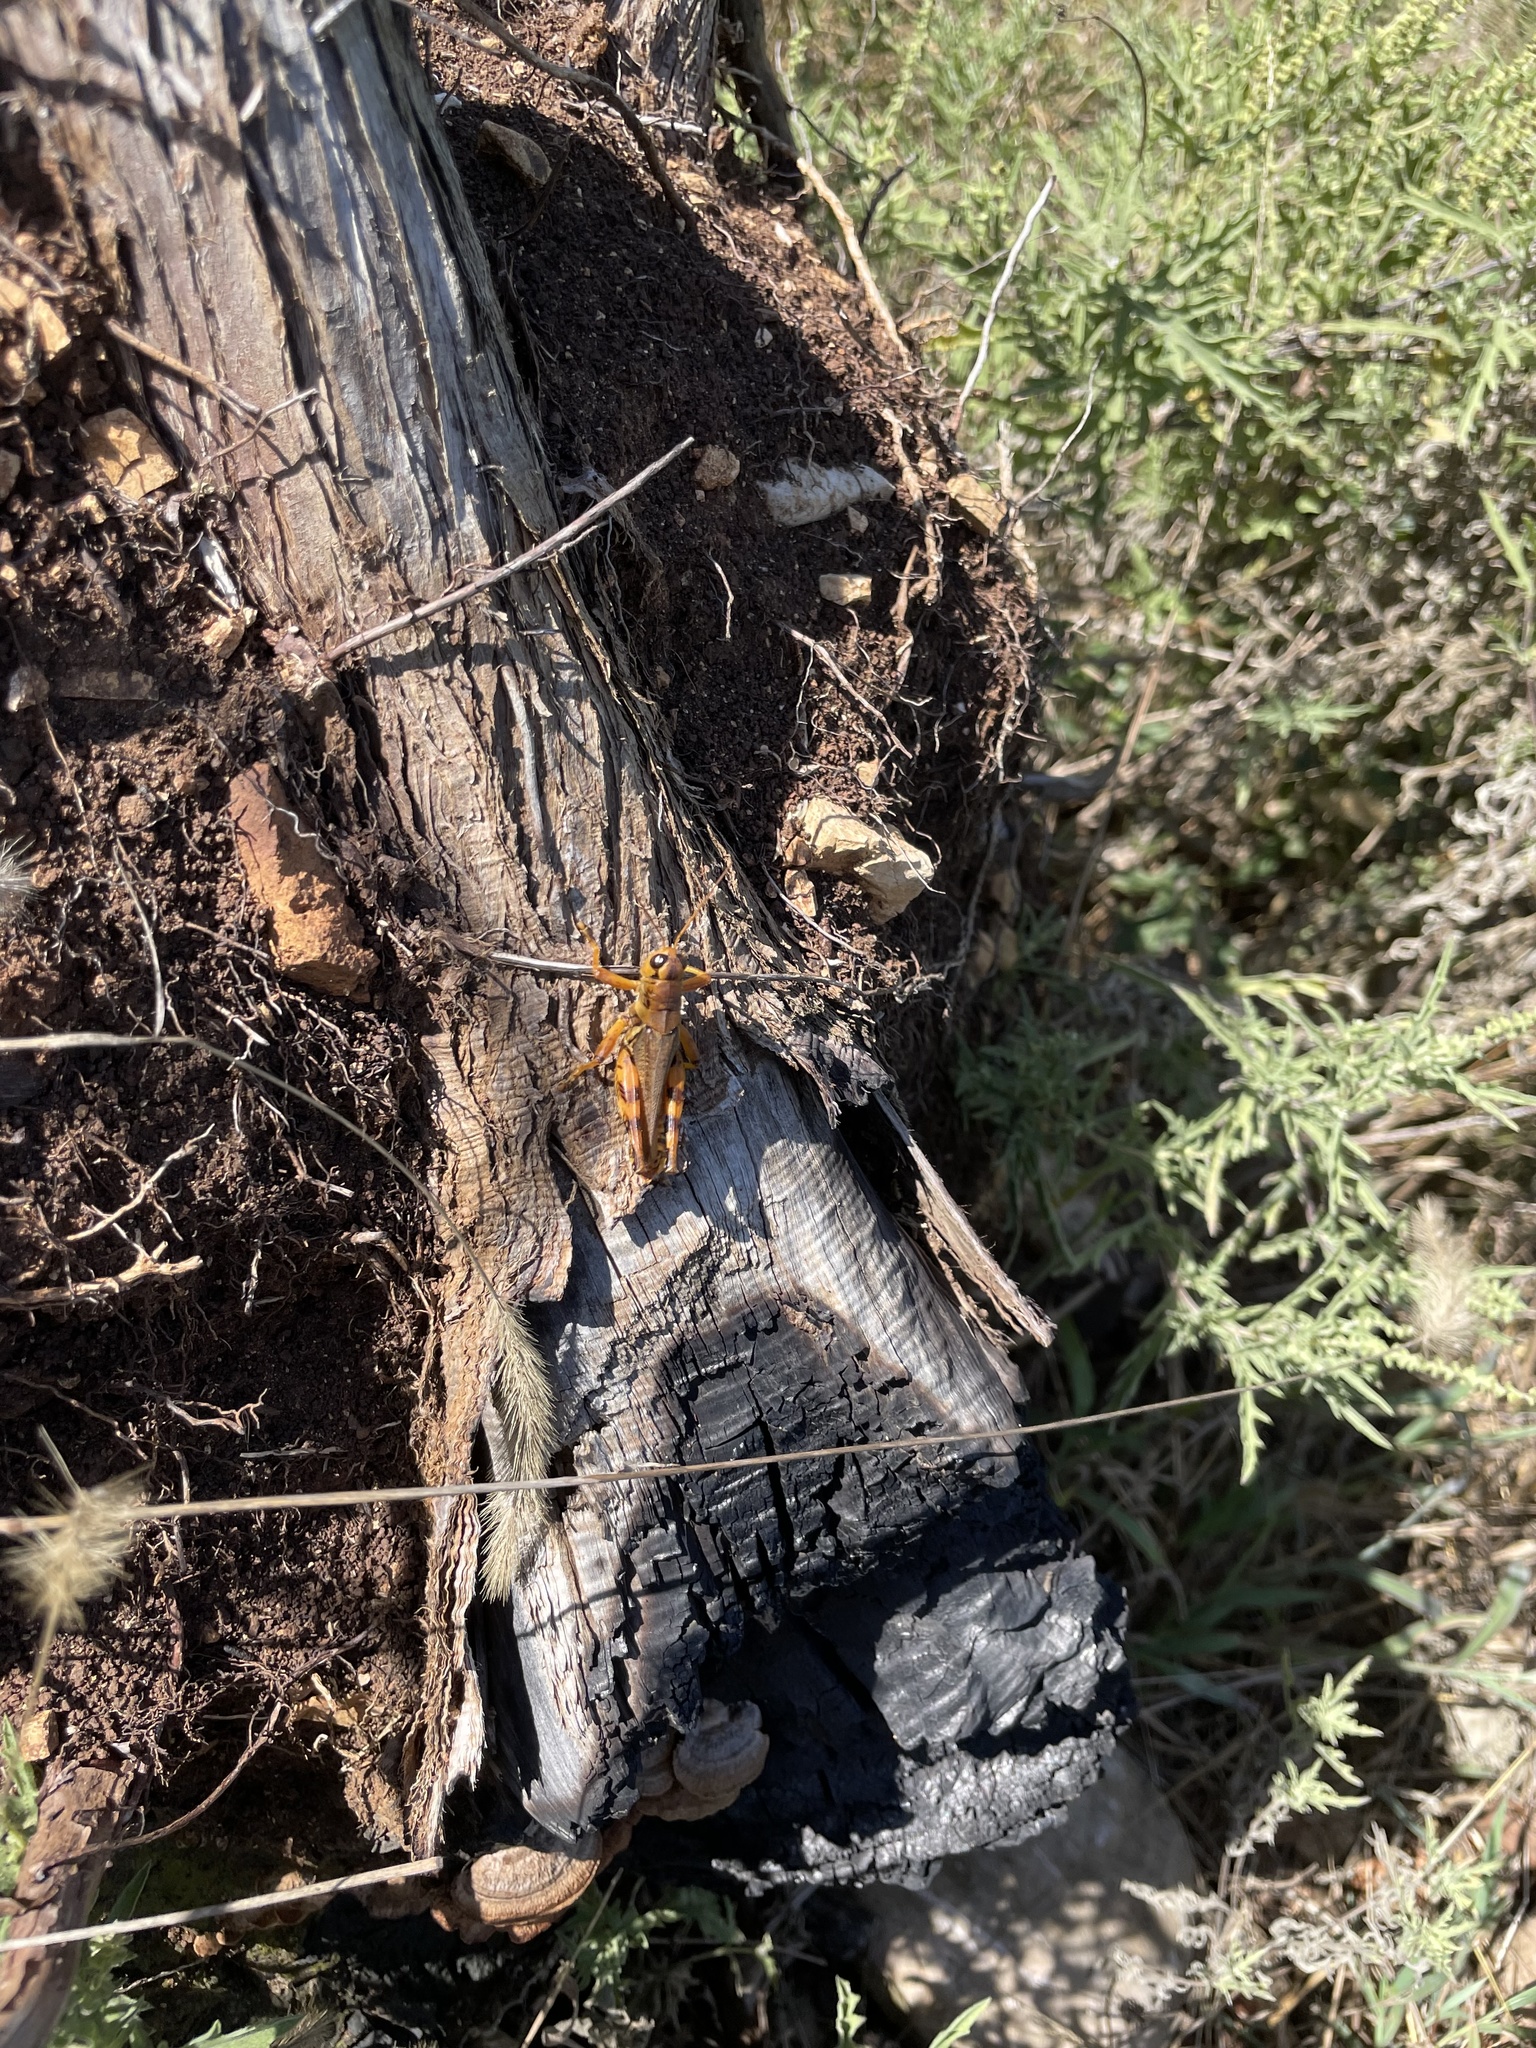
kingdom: Animalia
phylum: Arthropoda
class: Insecta
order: Orthoptera
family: Acrididae
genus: Melanoplus
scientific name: Melanoplus ponderosus
